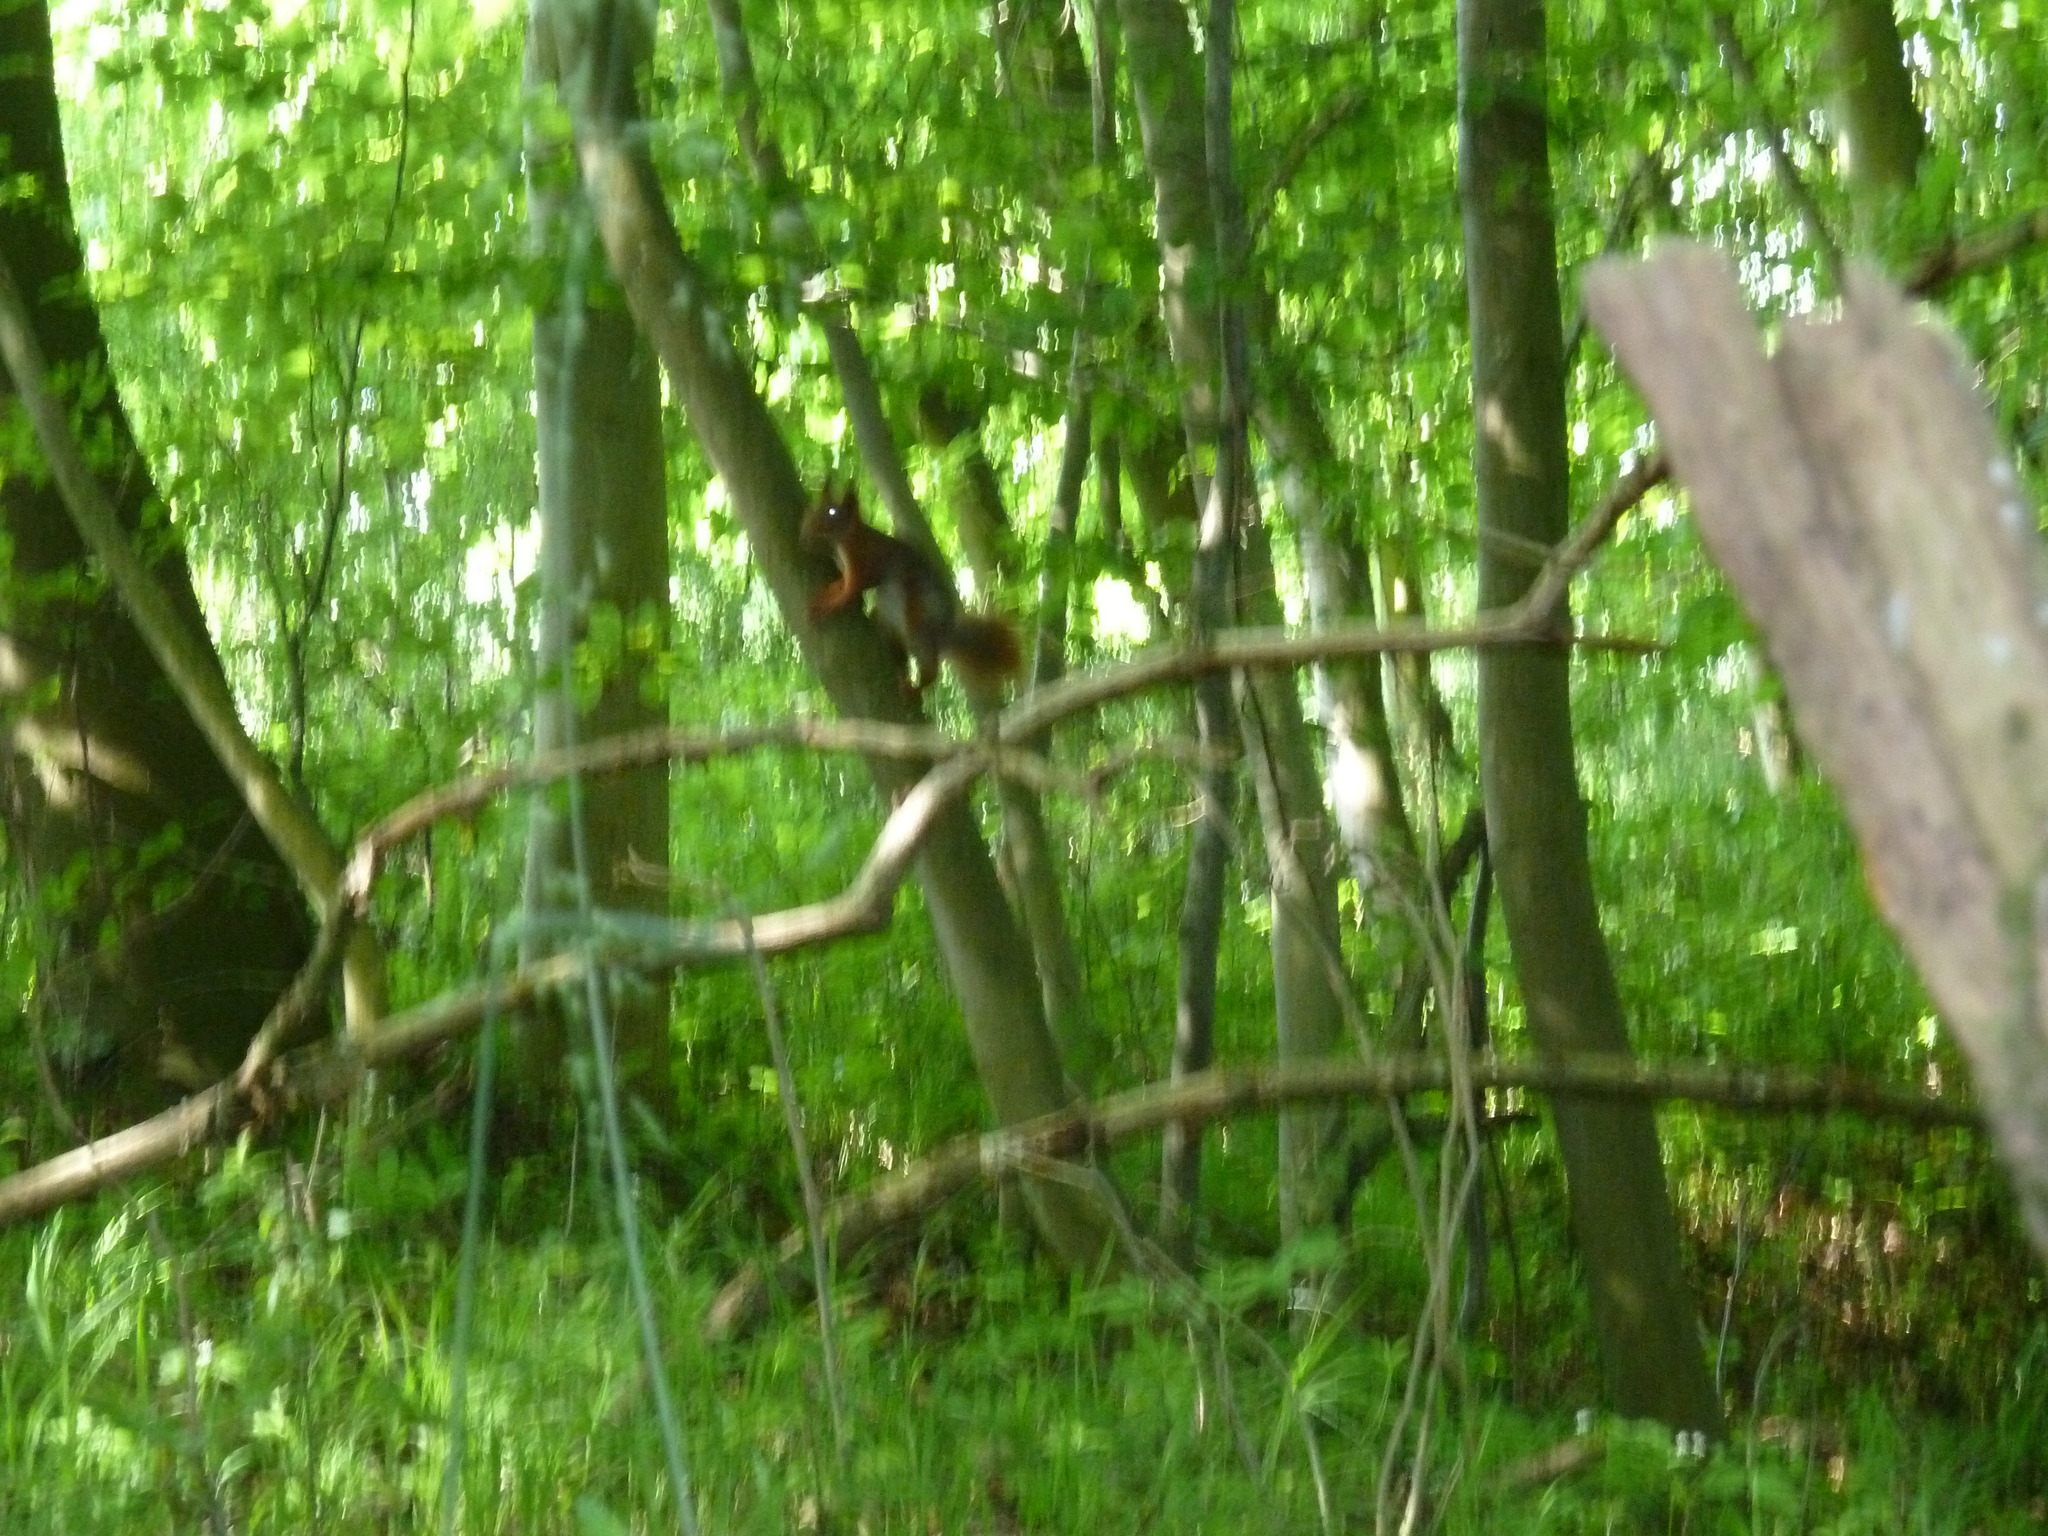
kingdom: Animalia
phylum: Chordata
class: Mammalia
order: Rodentia
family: Sciuridae
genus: Sciurus
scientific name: Sciurus vulgaris
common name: Eurasian red squirrel
